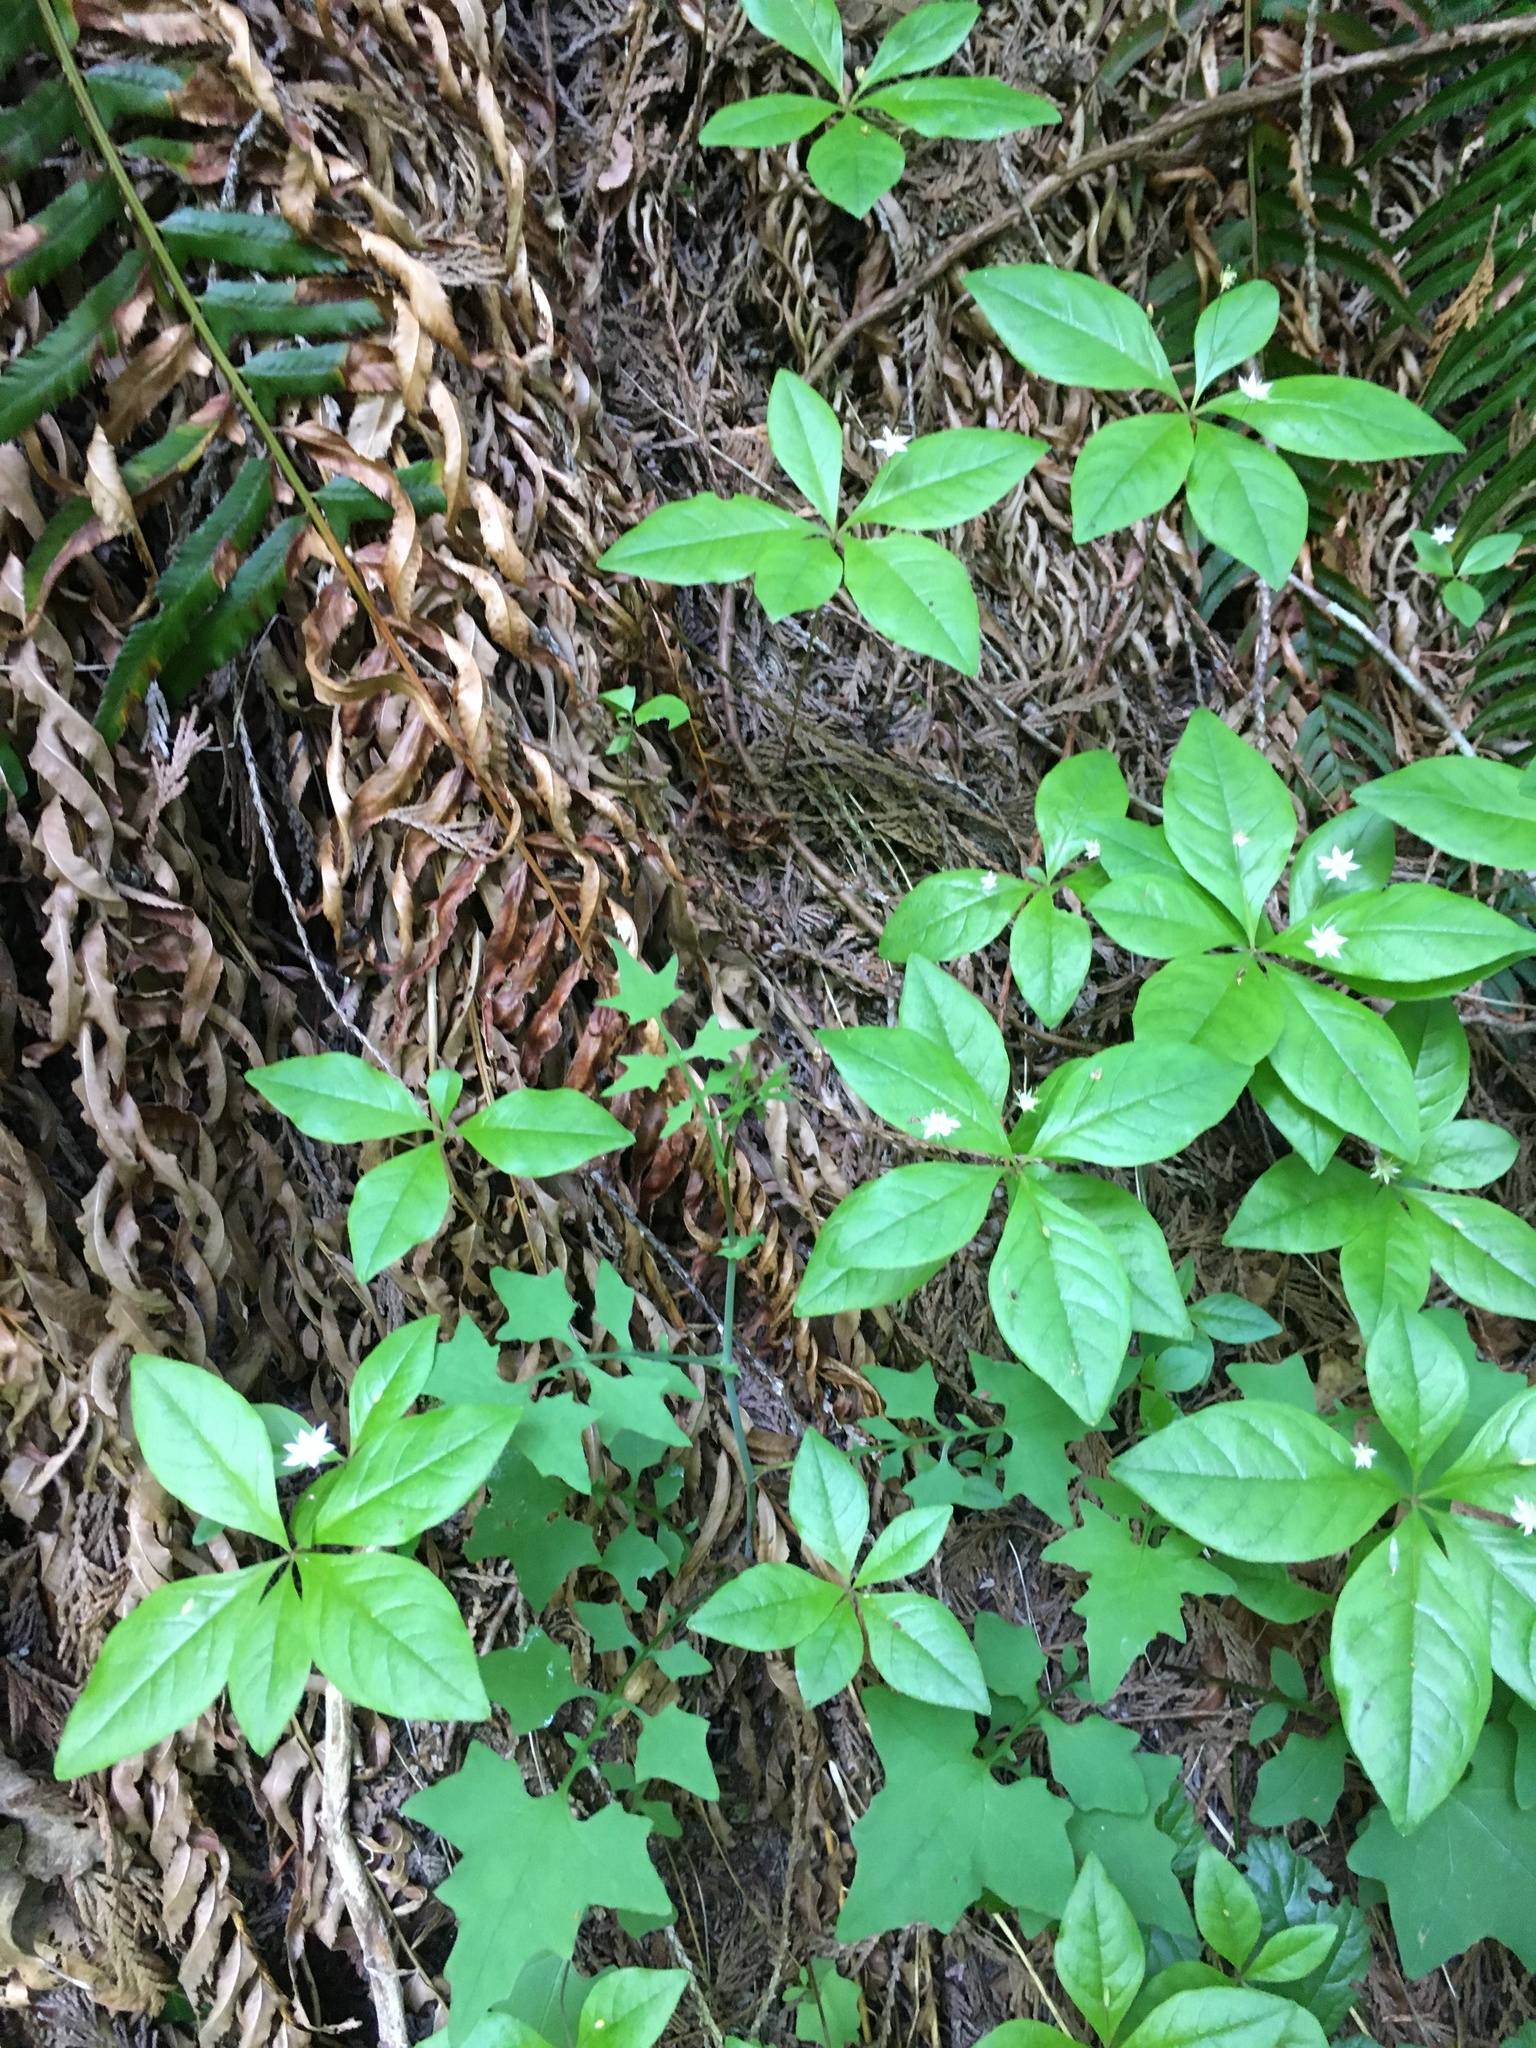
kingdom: Plantae
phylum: Tracheophyta
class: Magnoliopsida
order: Ericales
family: Primulaceae
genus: Lysimachia
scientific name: Lysimachia latifolia
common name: Pacific starflower
